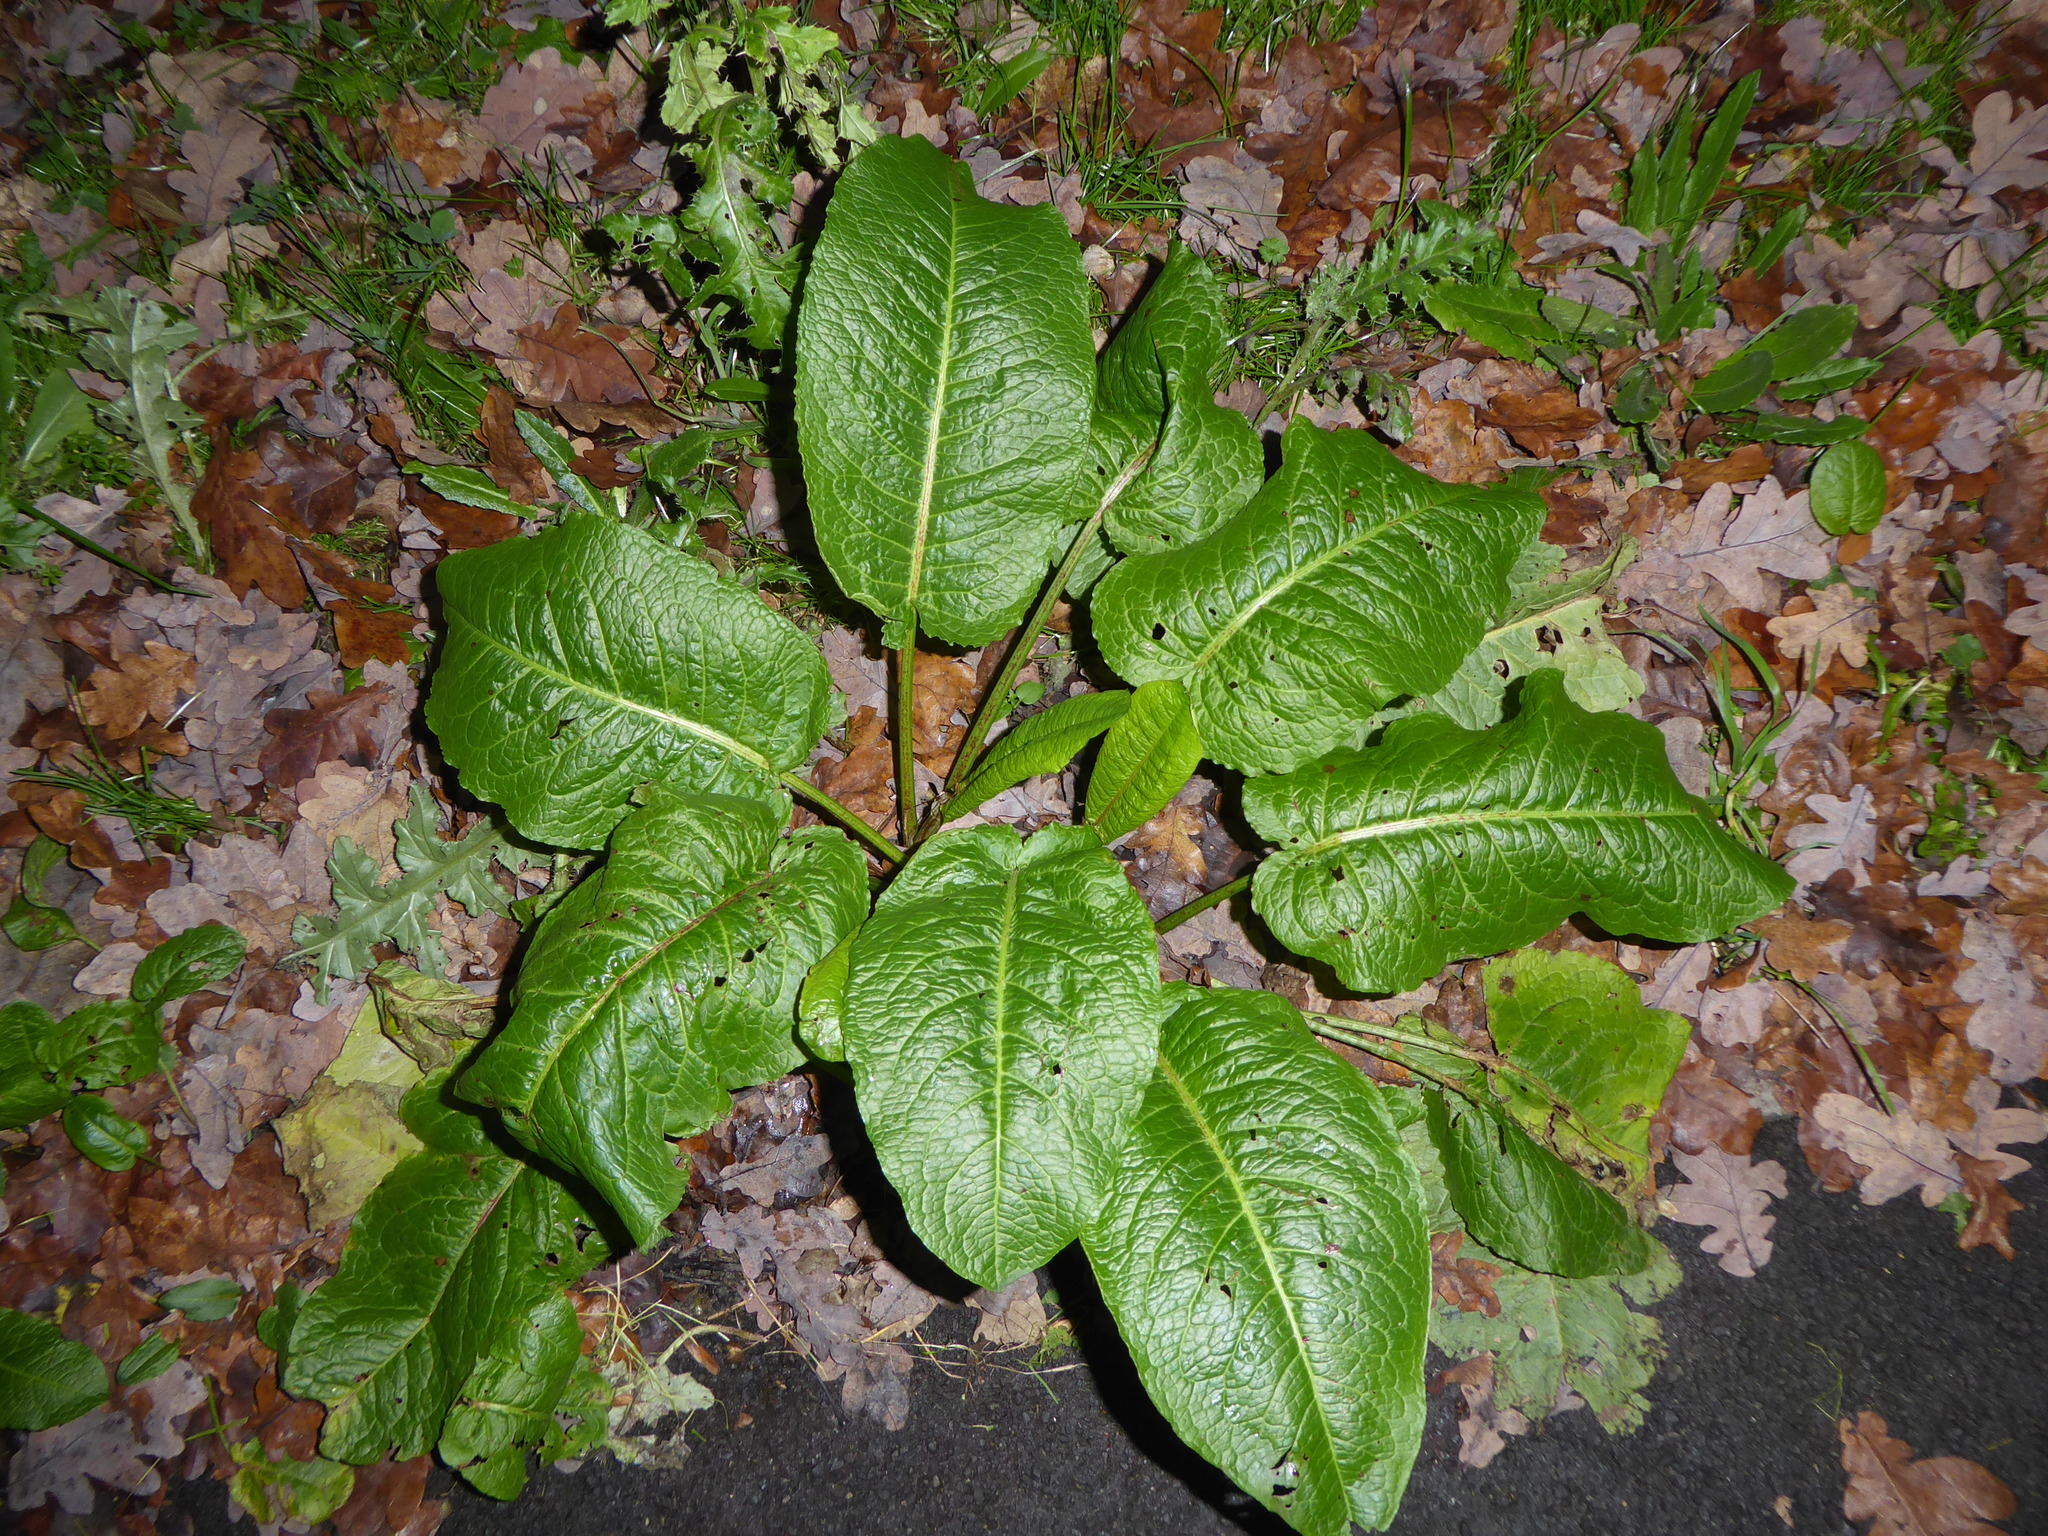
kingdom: Plantae
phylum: Tracheophyta
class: Magnoliopsida
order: Caryophyllales
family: Polygonaceae
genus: Rumex
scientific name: Rumex obtusifolius
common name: Bitter dock
